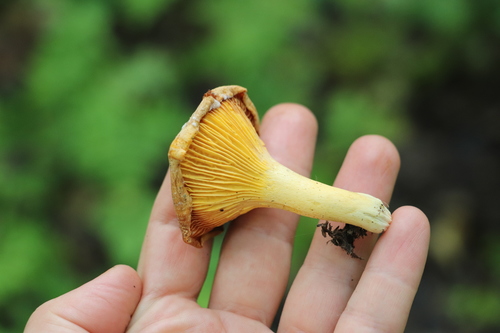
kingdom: Fungi
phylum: Basidiomycota
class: Agaricomycetes
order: Cantharellales
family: Hydnaceae
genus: Cantharellus
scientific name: Cantharellus cibarius
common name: Chanterelle
